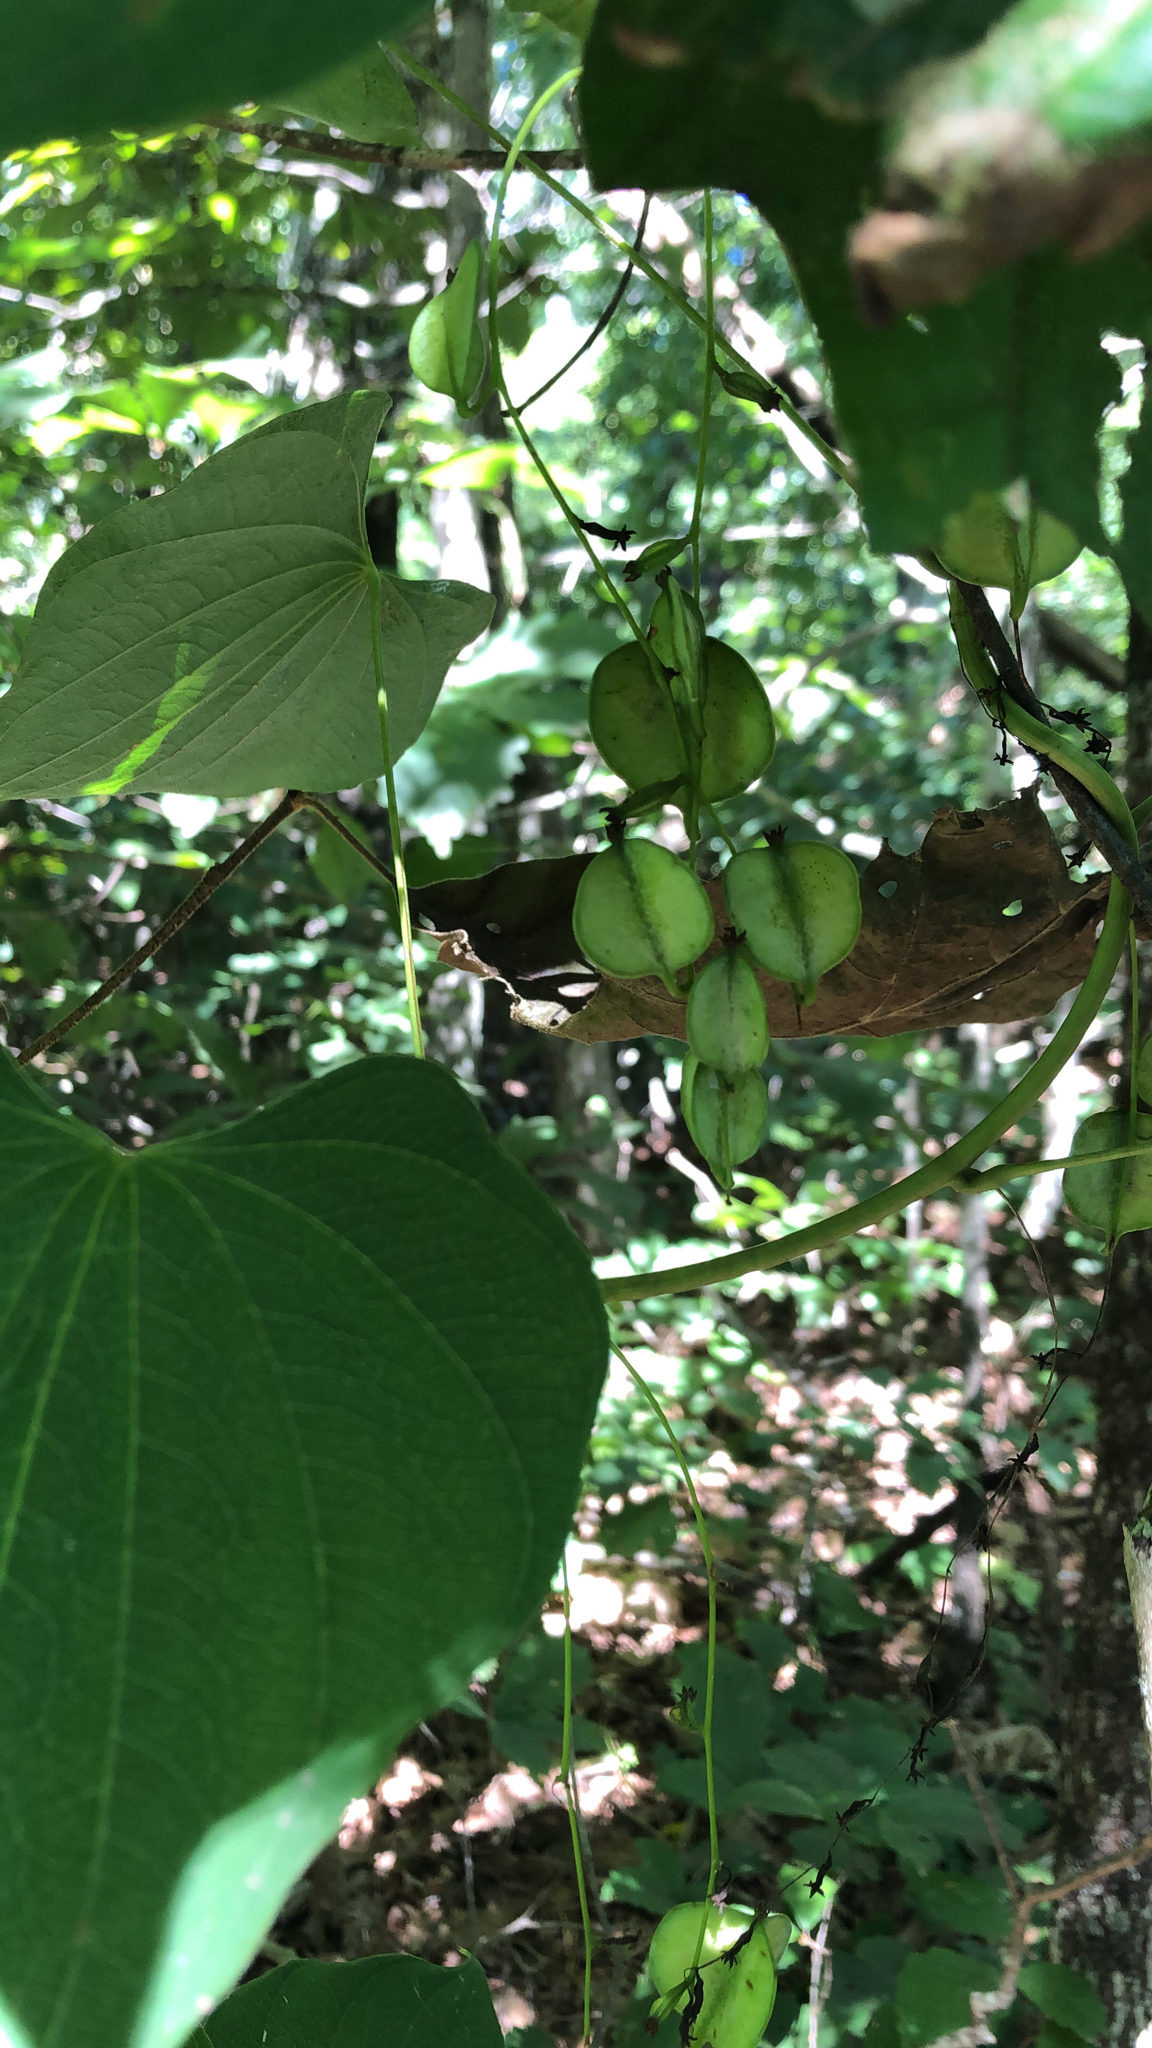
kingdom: Plantae
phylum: Tracheophyta
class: Liliopsida
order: Dioscoreales
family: Dioscoreaceae
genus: Dioscorea
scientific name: Dioscorea villosa
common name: Wild yam
